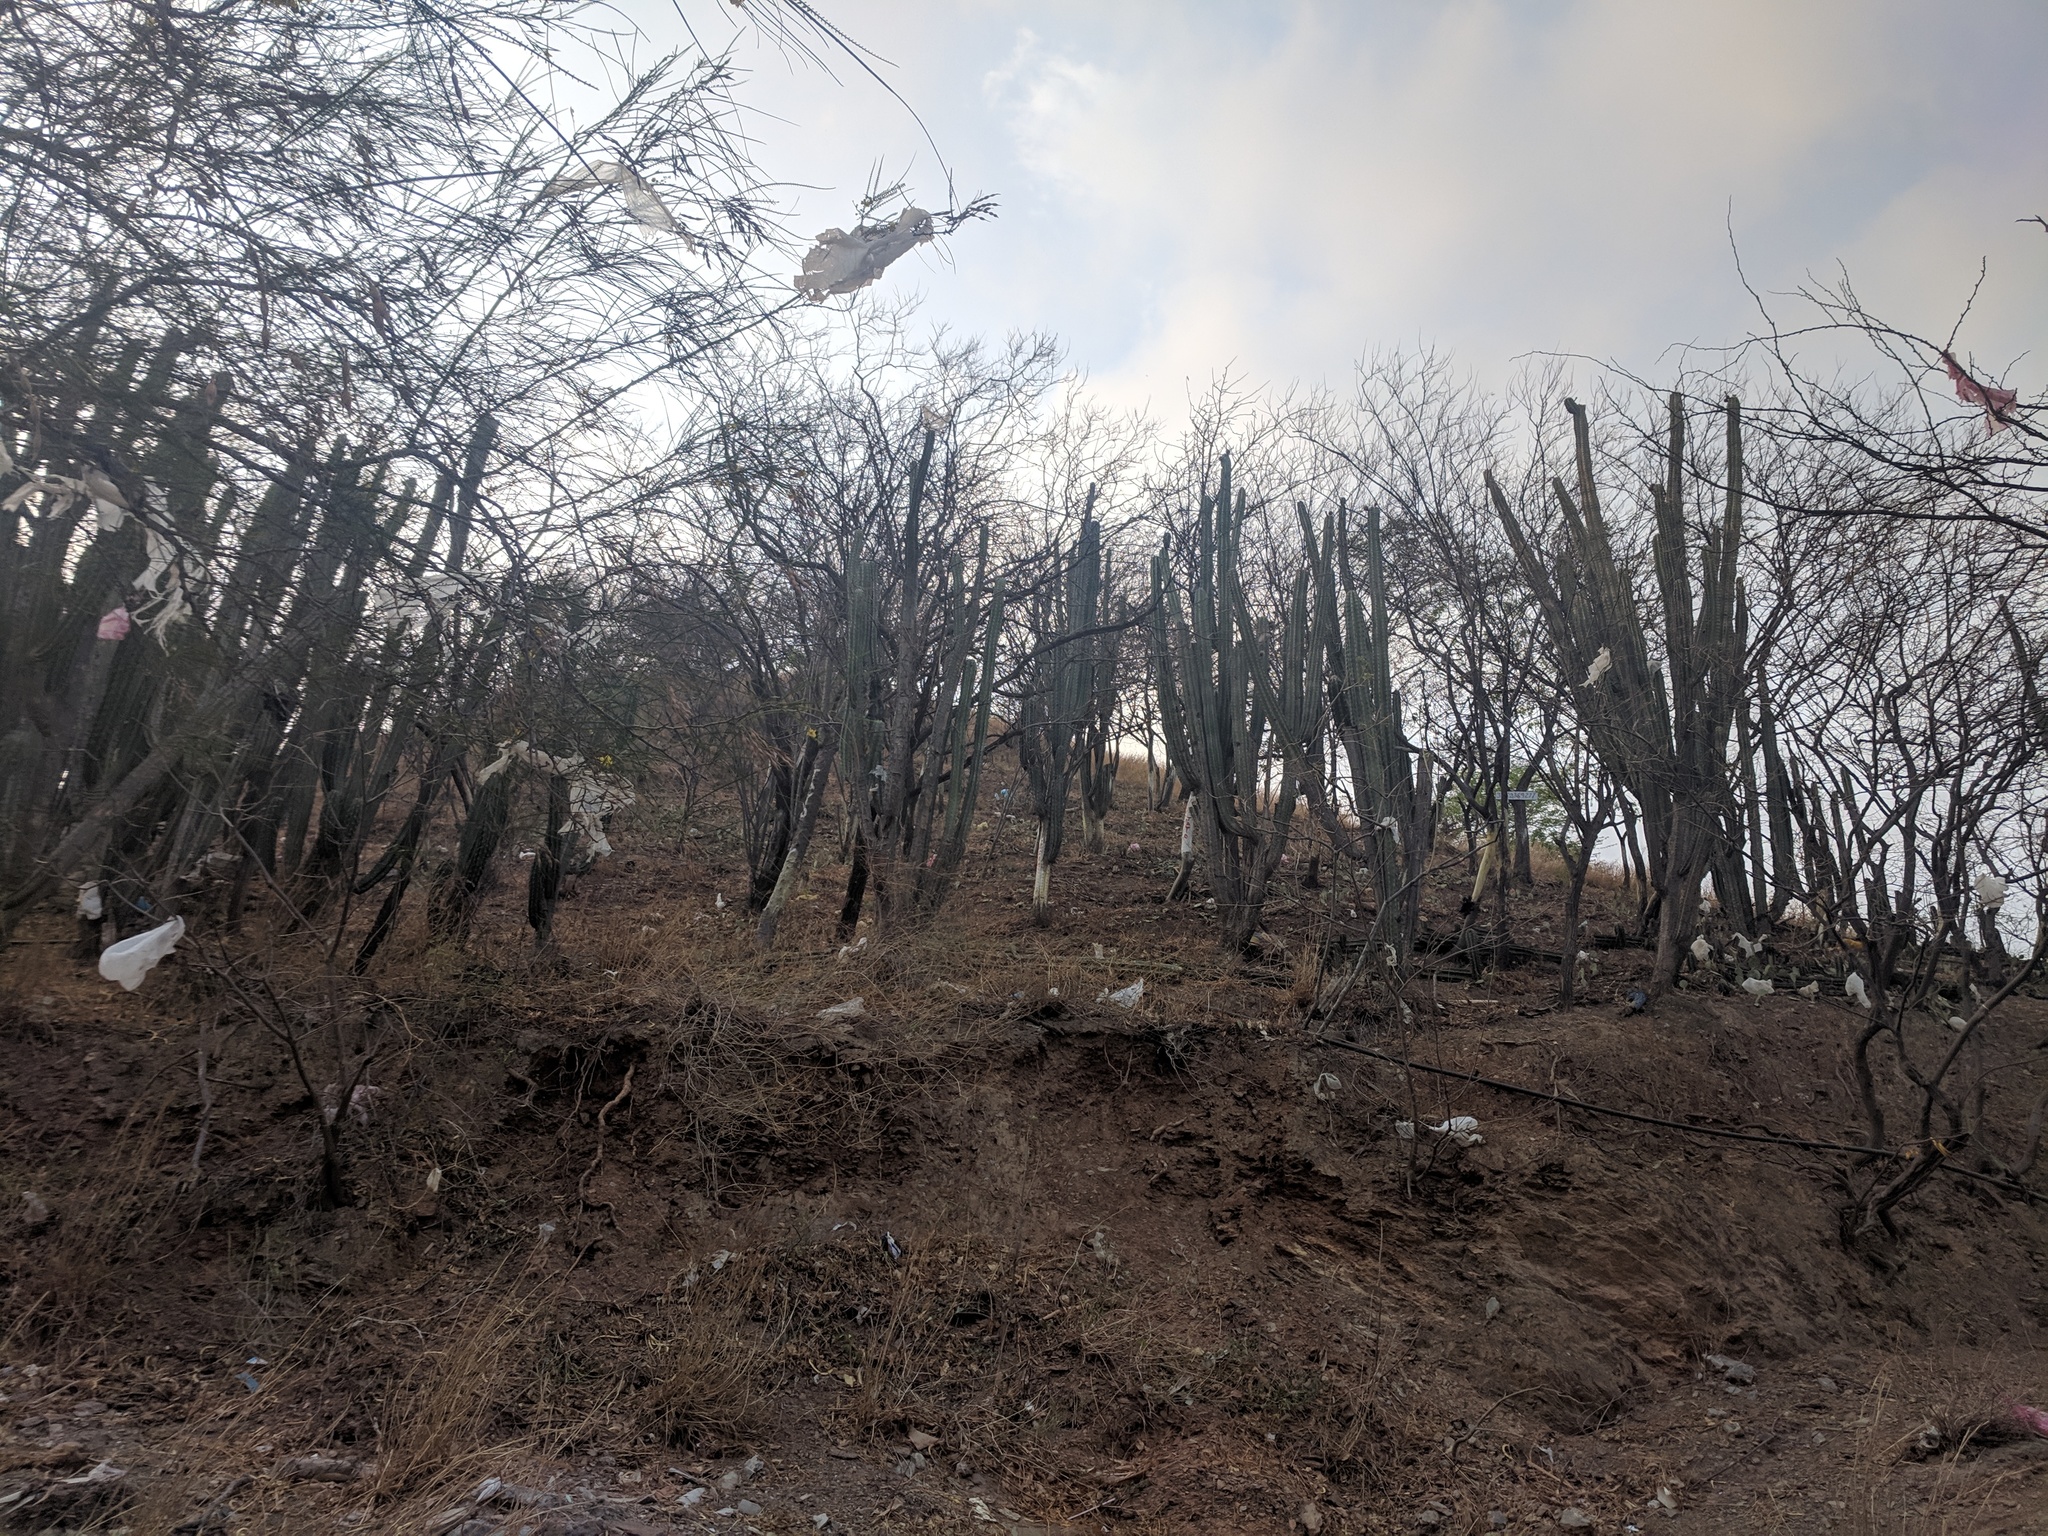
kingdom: Plantae
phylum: Tracheophyta
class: Magnoliopsida
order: Caryophyllales
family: Cactaceae
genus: Stenocereus
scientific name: Stenocereus griseus
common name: Tall candelabra cactus
